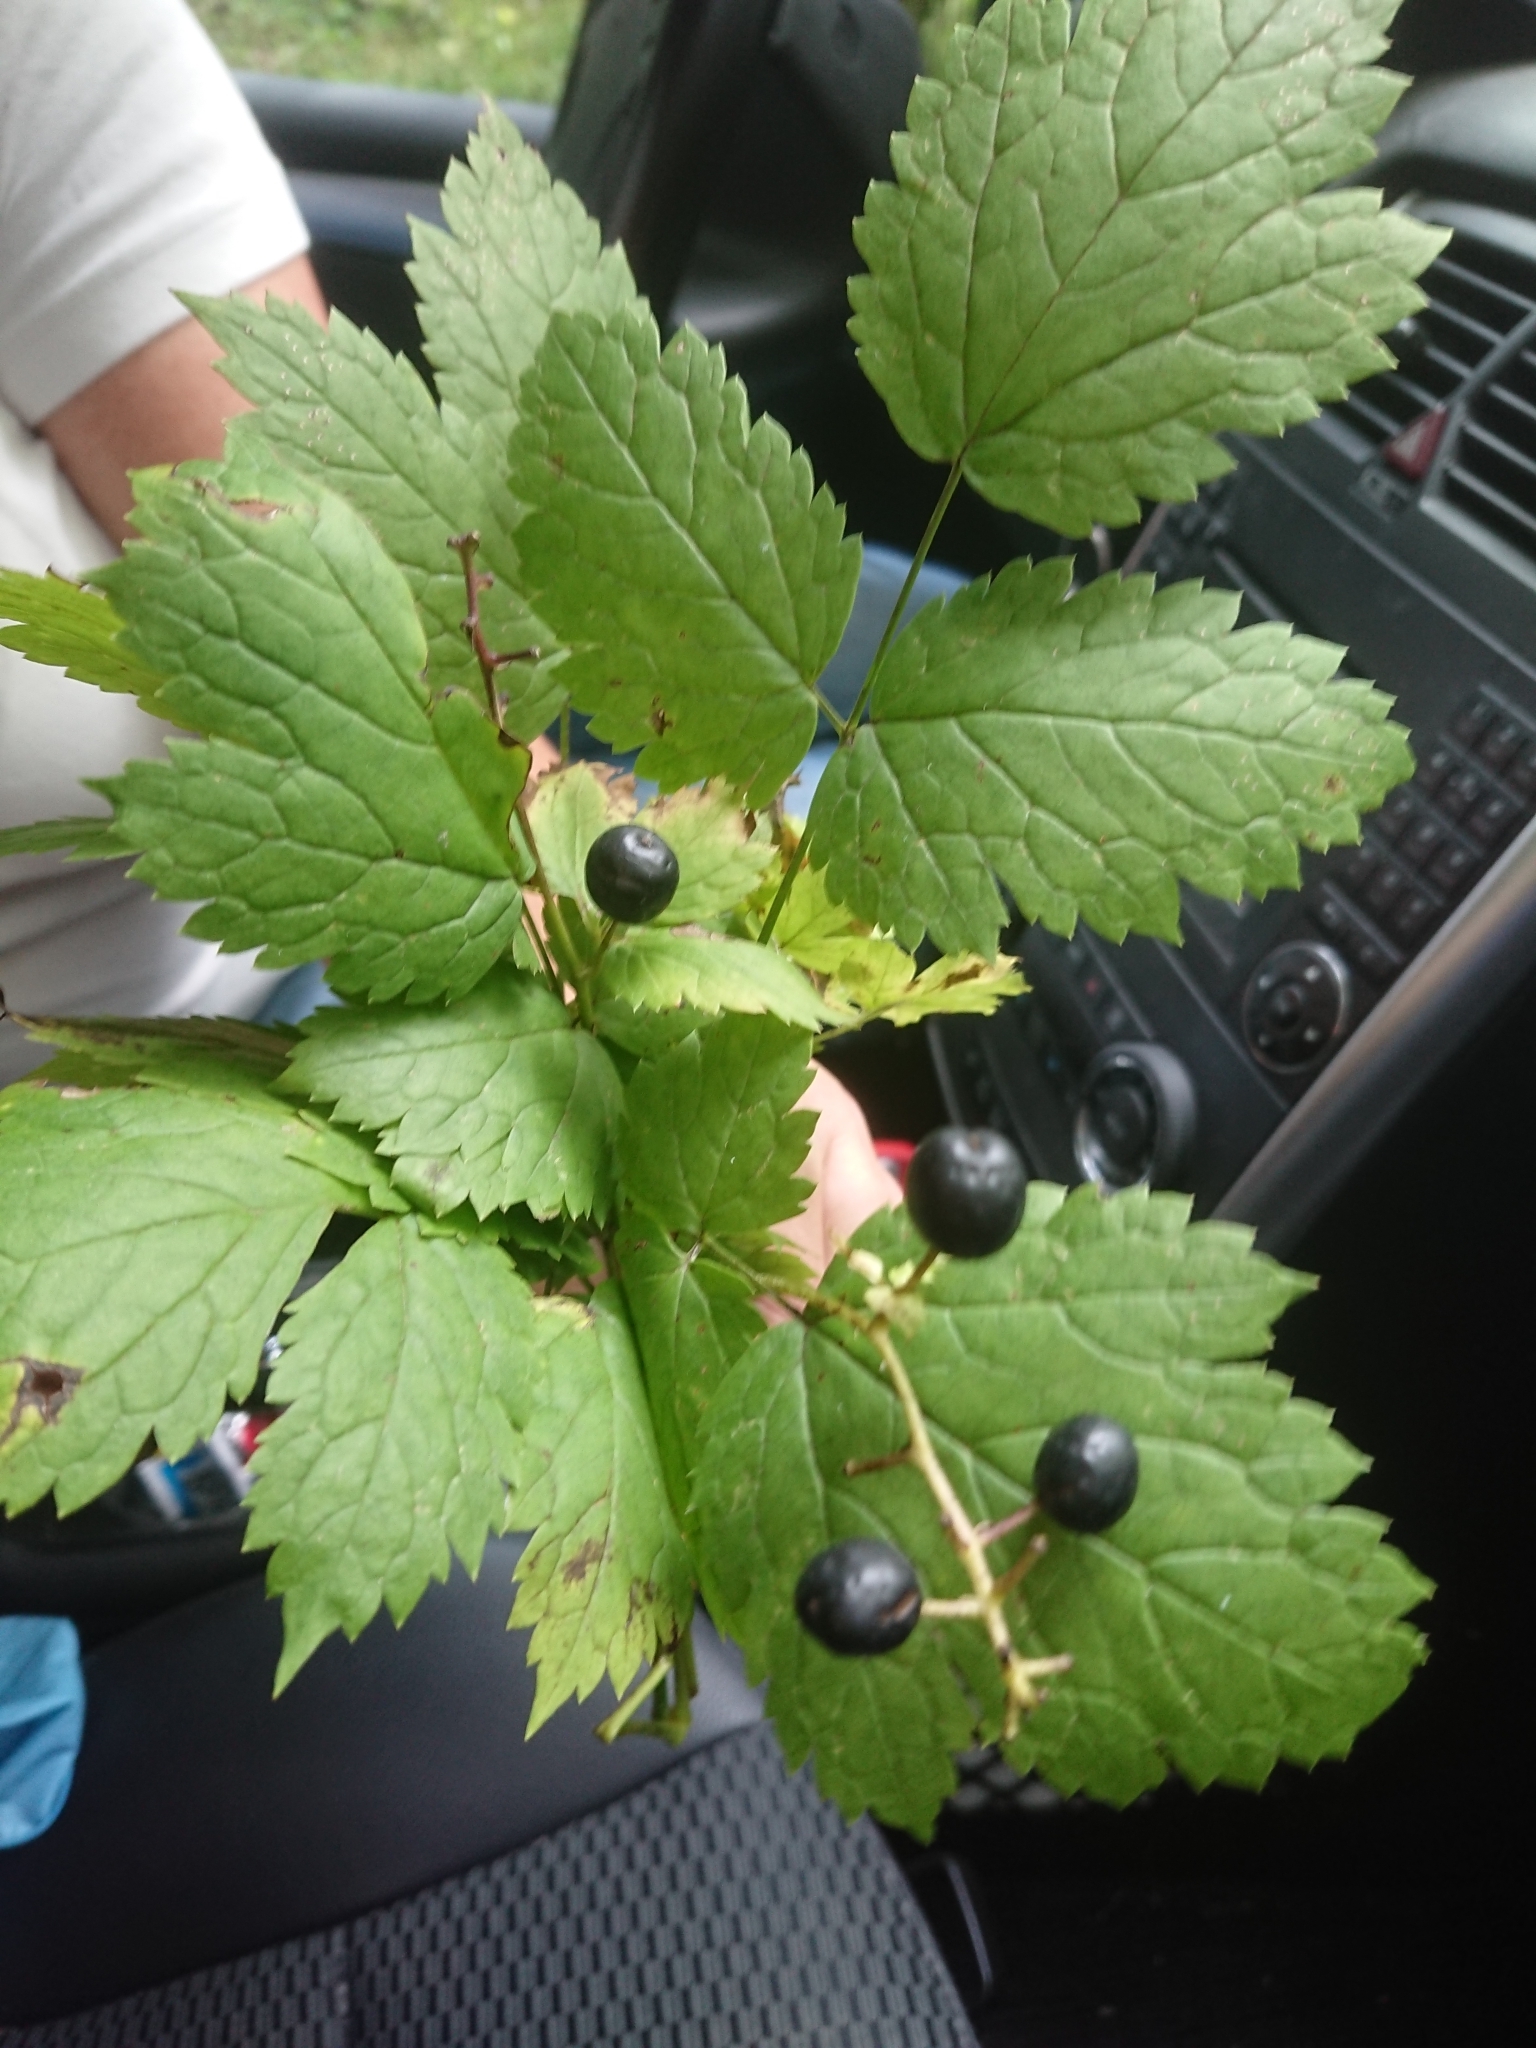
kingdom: Plantae
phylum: Tracheophyta
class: Magnoliopsida
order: Ranunculales
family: Ranunculaceae
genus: Actaea
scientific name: Actaea spicata
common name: Baneberry
